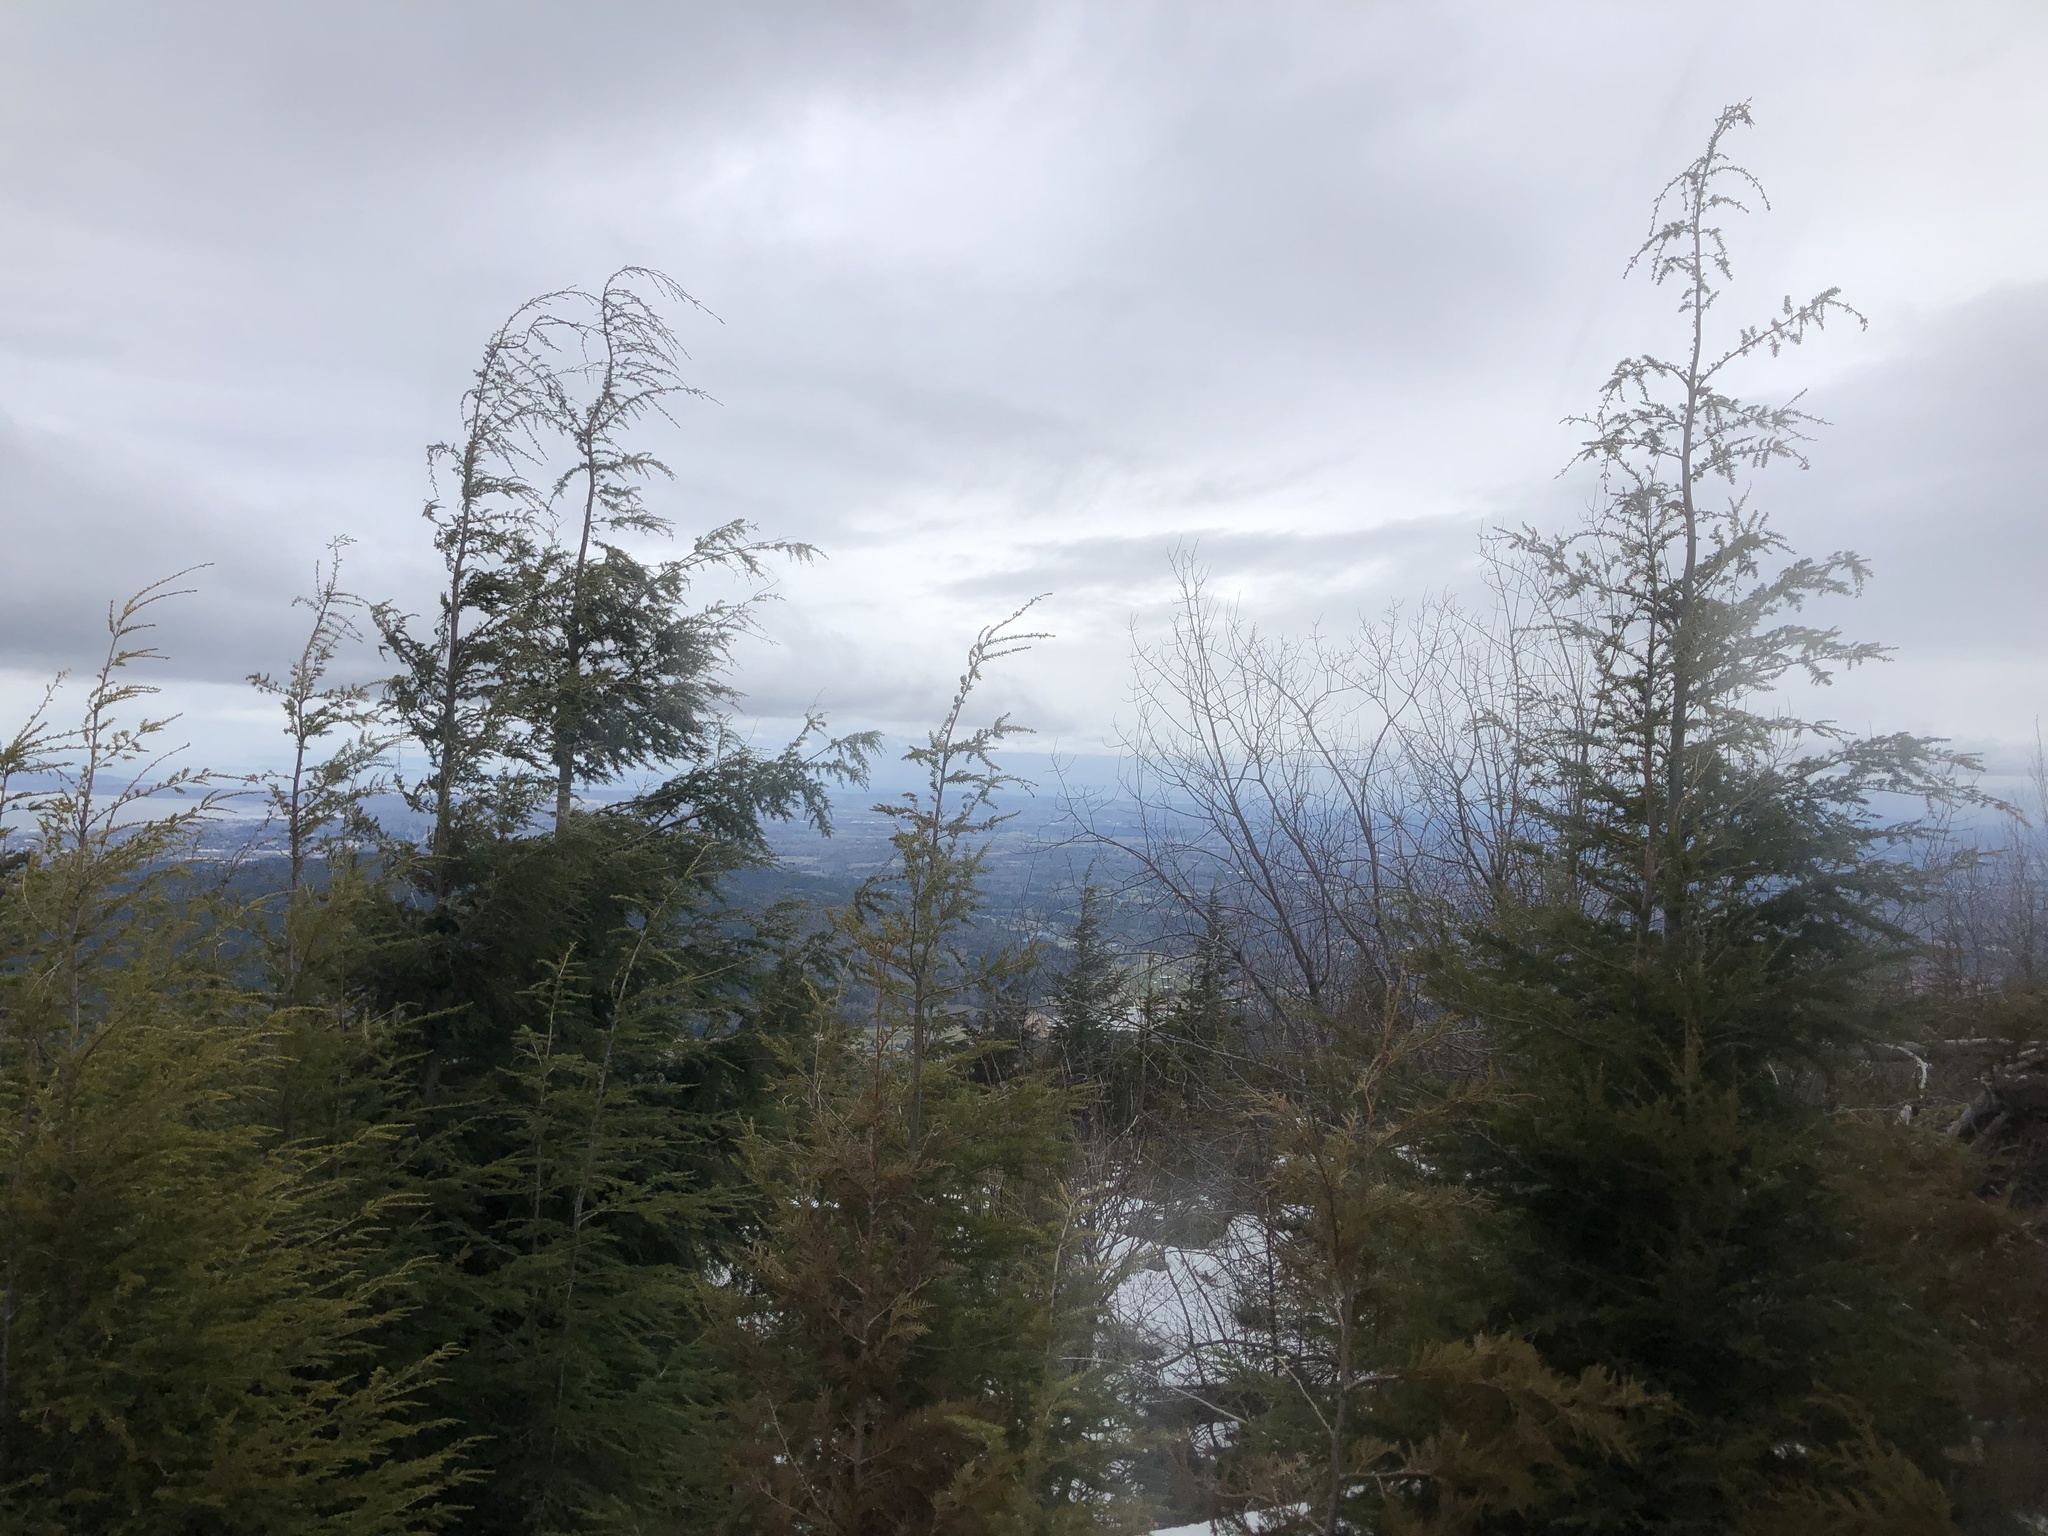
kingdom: Plantae
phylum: Tracheophyta
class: Pinopsida
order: Pinales
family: Pinaceae
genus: Tsuga
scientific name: Tsuga heterophylla
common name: Western hemlock
